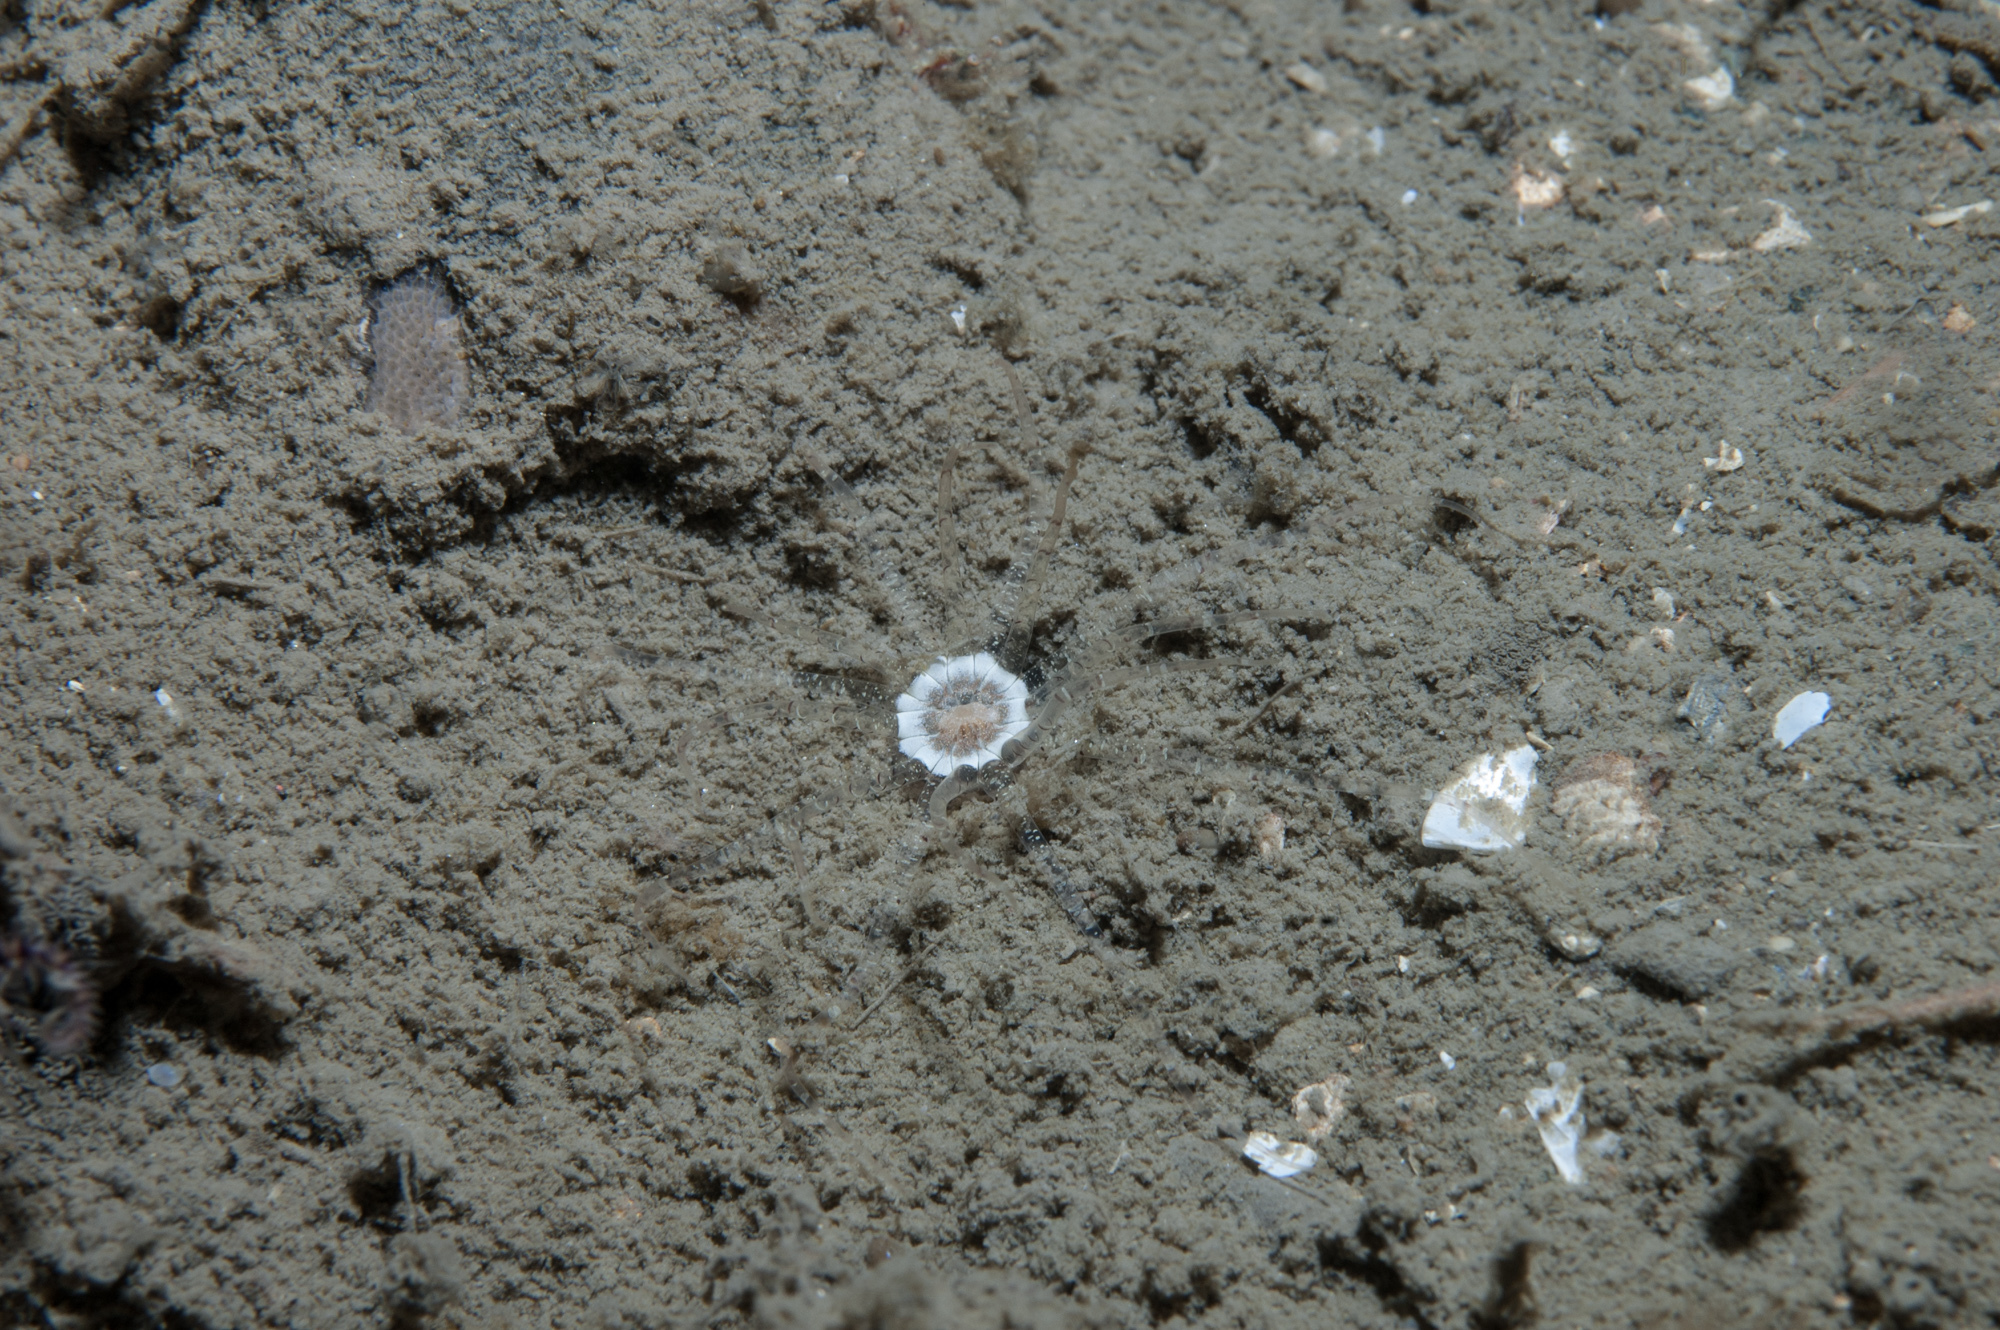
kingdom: Animalia
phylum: Cnidaria
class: Anthozoa
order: Actiniaria
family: Edwardsiidae
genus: Edwardsia
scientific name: Edwardsia claparedii
